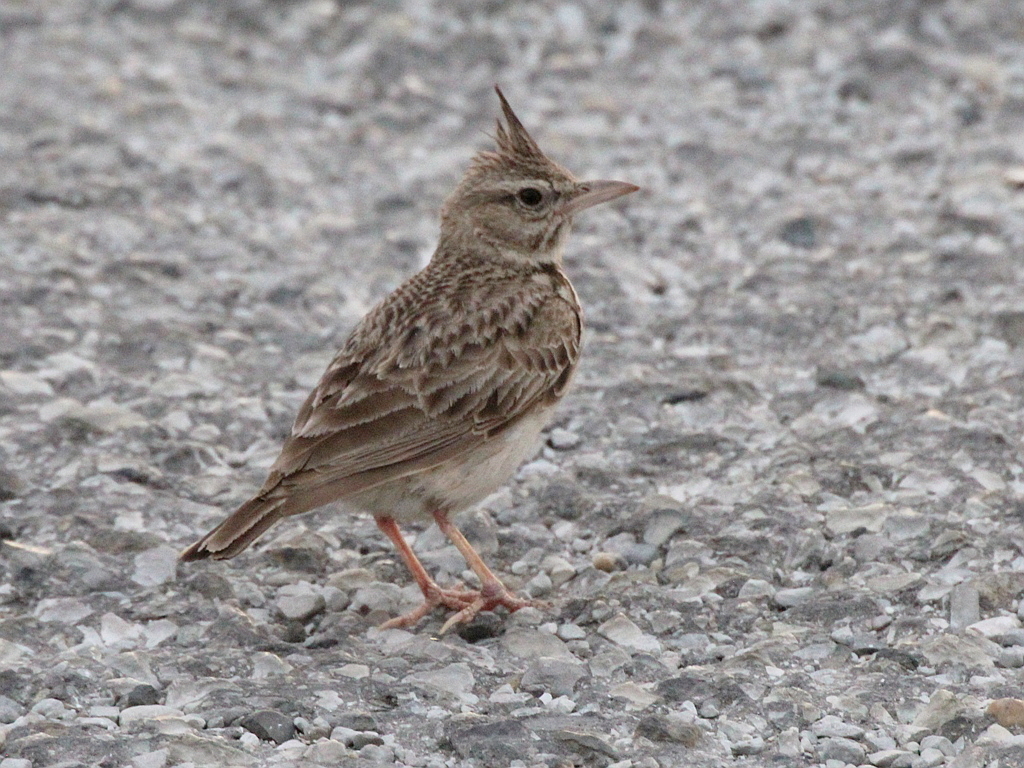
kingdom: Animalia
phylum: Chordata
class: Aves
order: Passeriformes
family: Alaudidae
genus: Galerida
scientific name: Galerida cristata
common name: Crested lark
